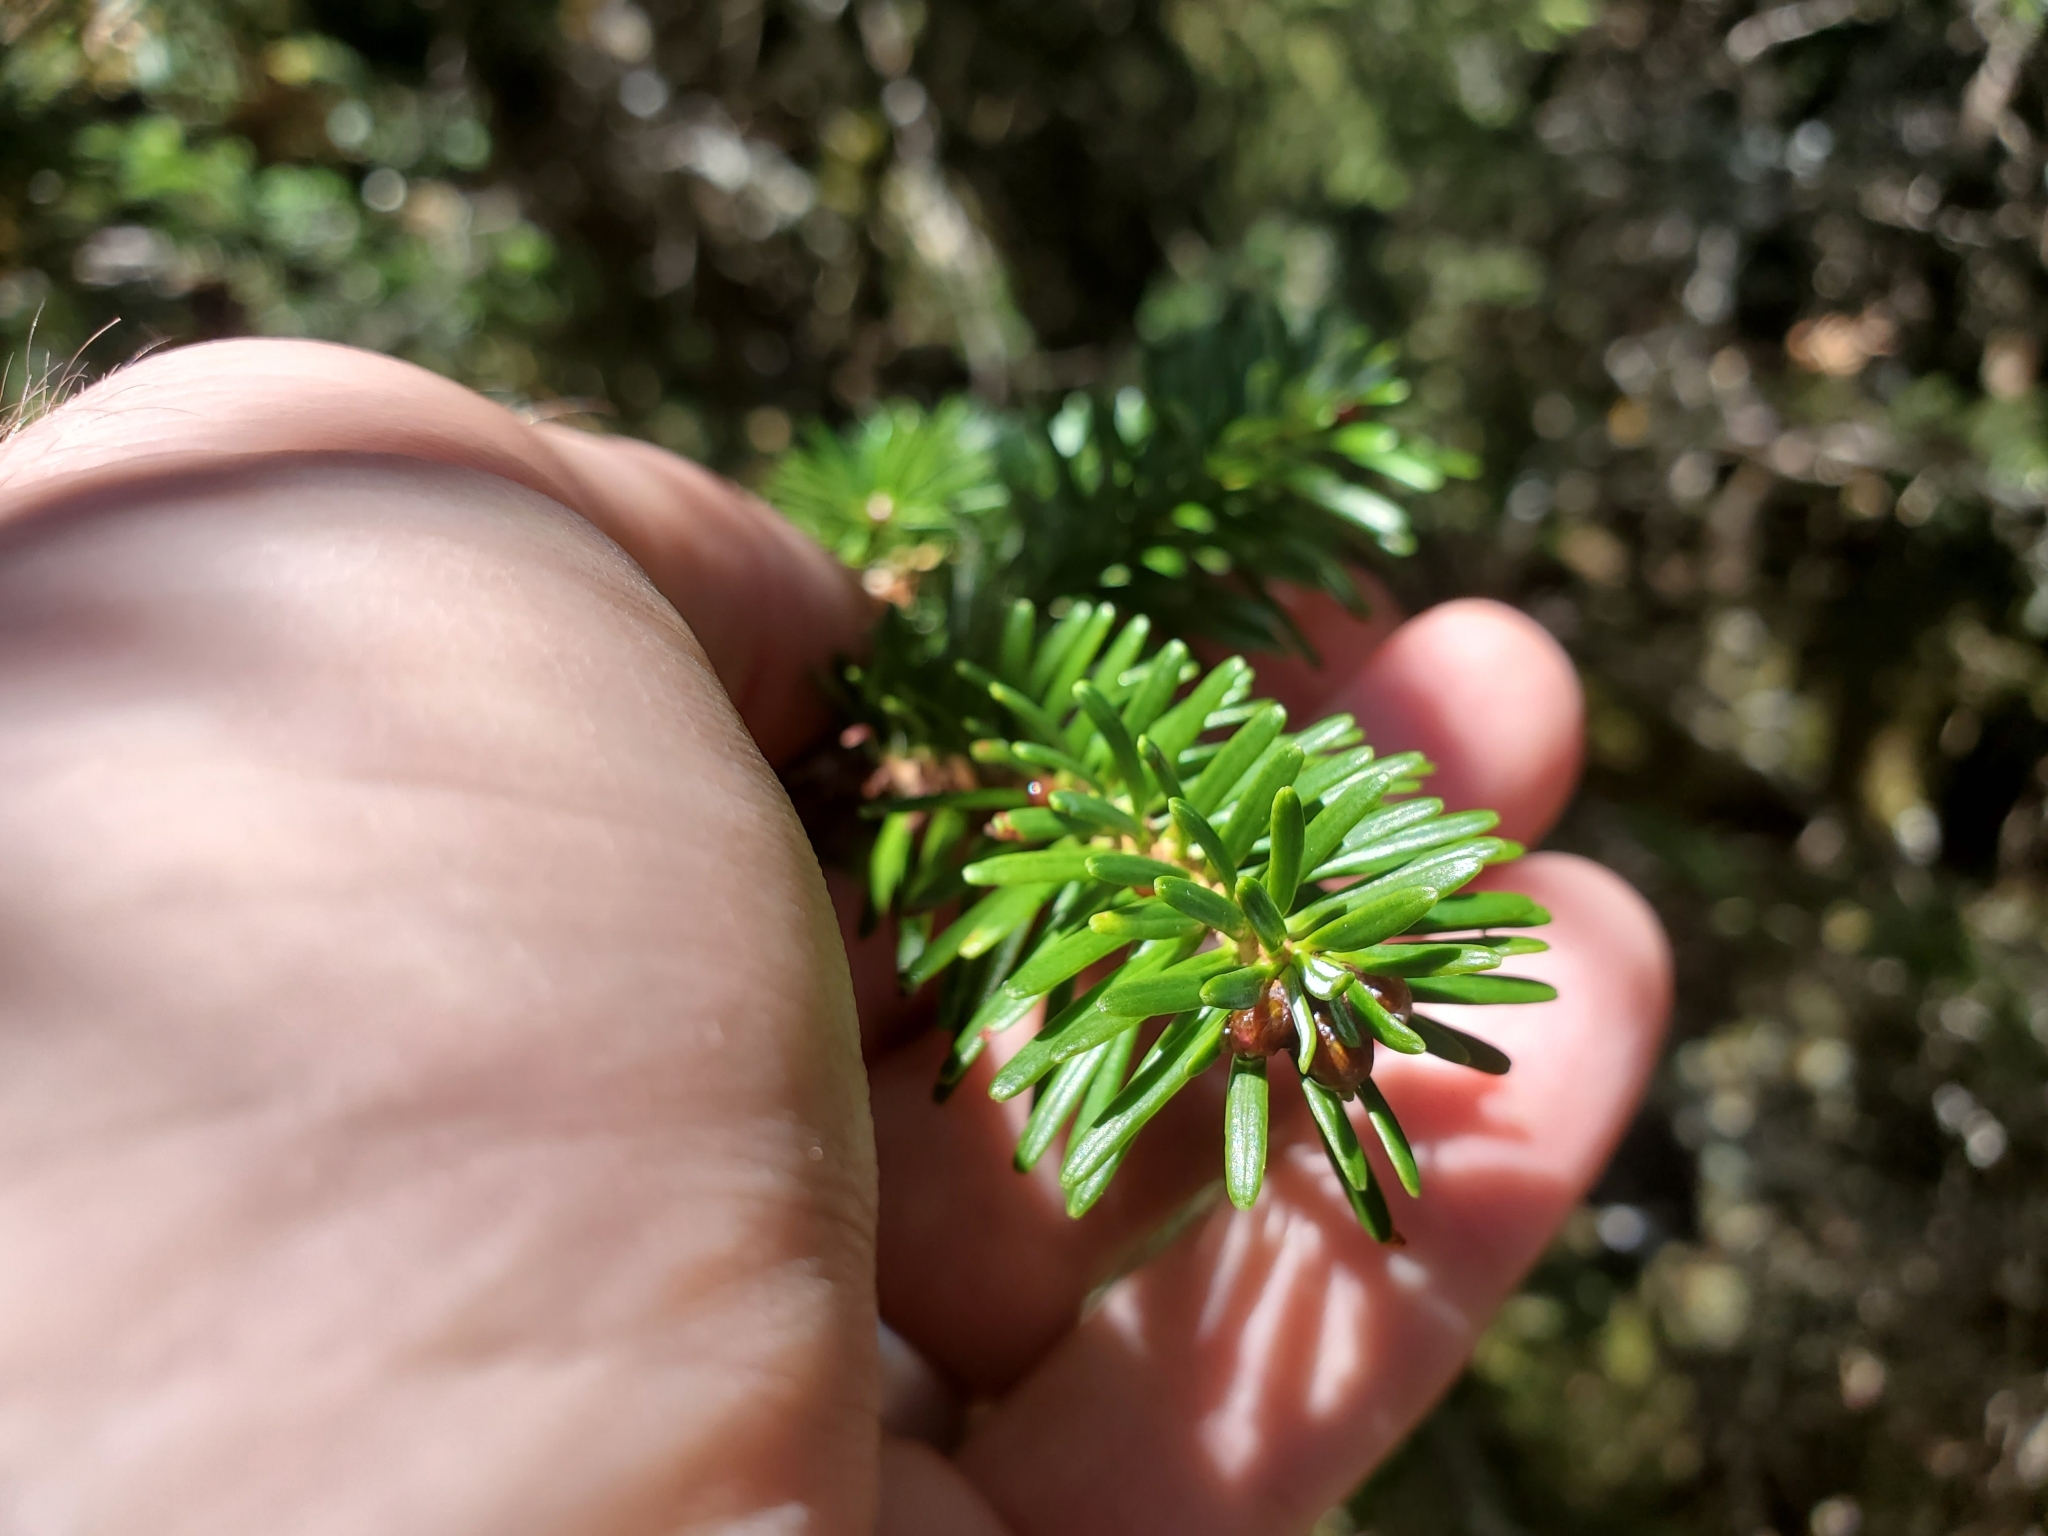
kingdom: Plantae
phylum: Tracheophyta
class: Pinopsida
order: Pinales
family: Pinaceae
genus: Abies
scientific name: Abies fraseri
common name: Fraser fir
